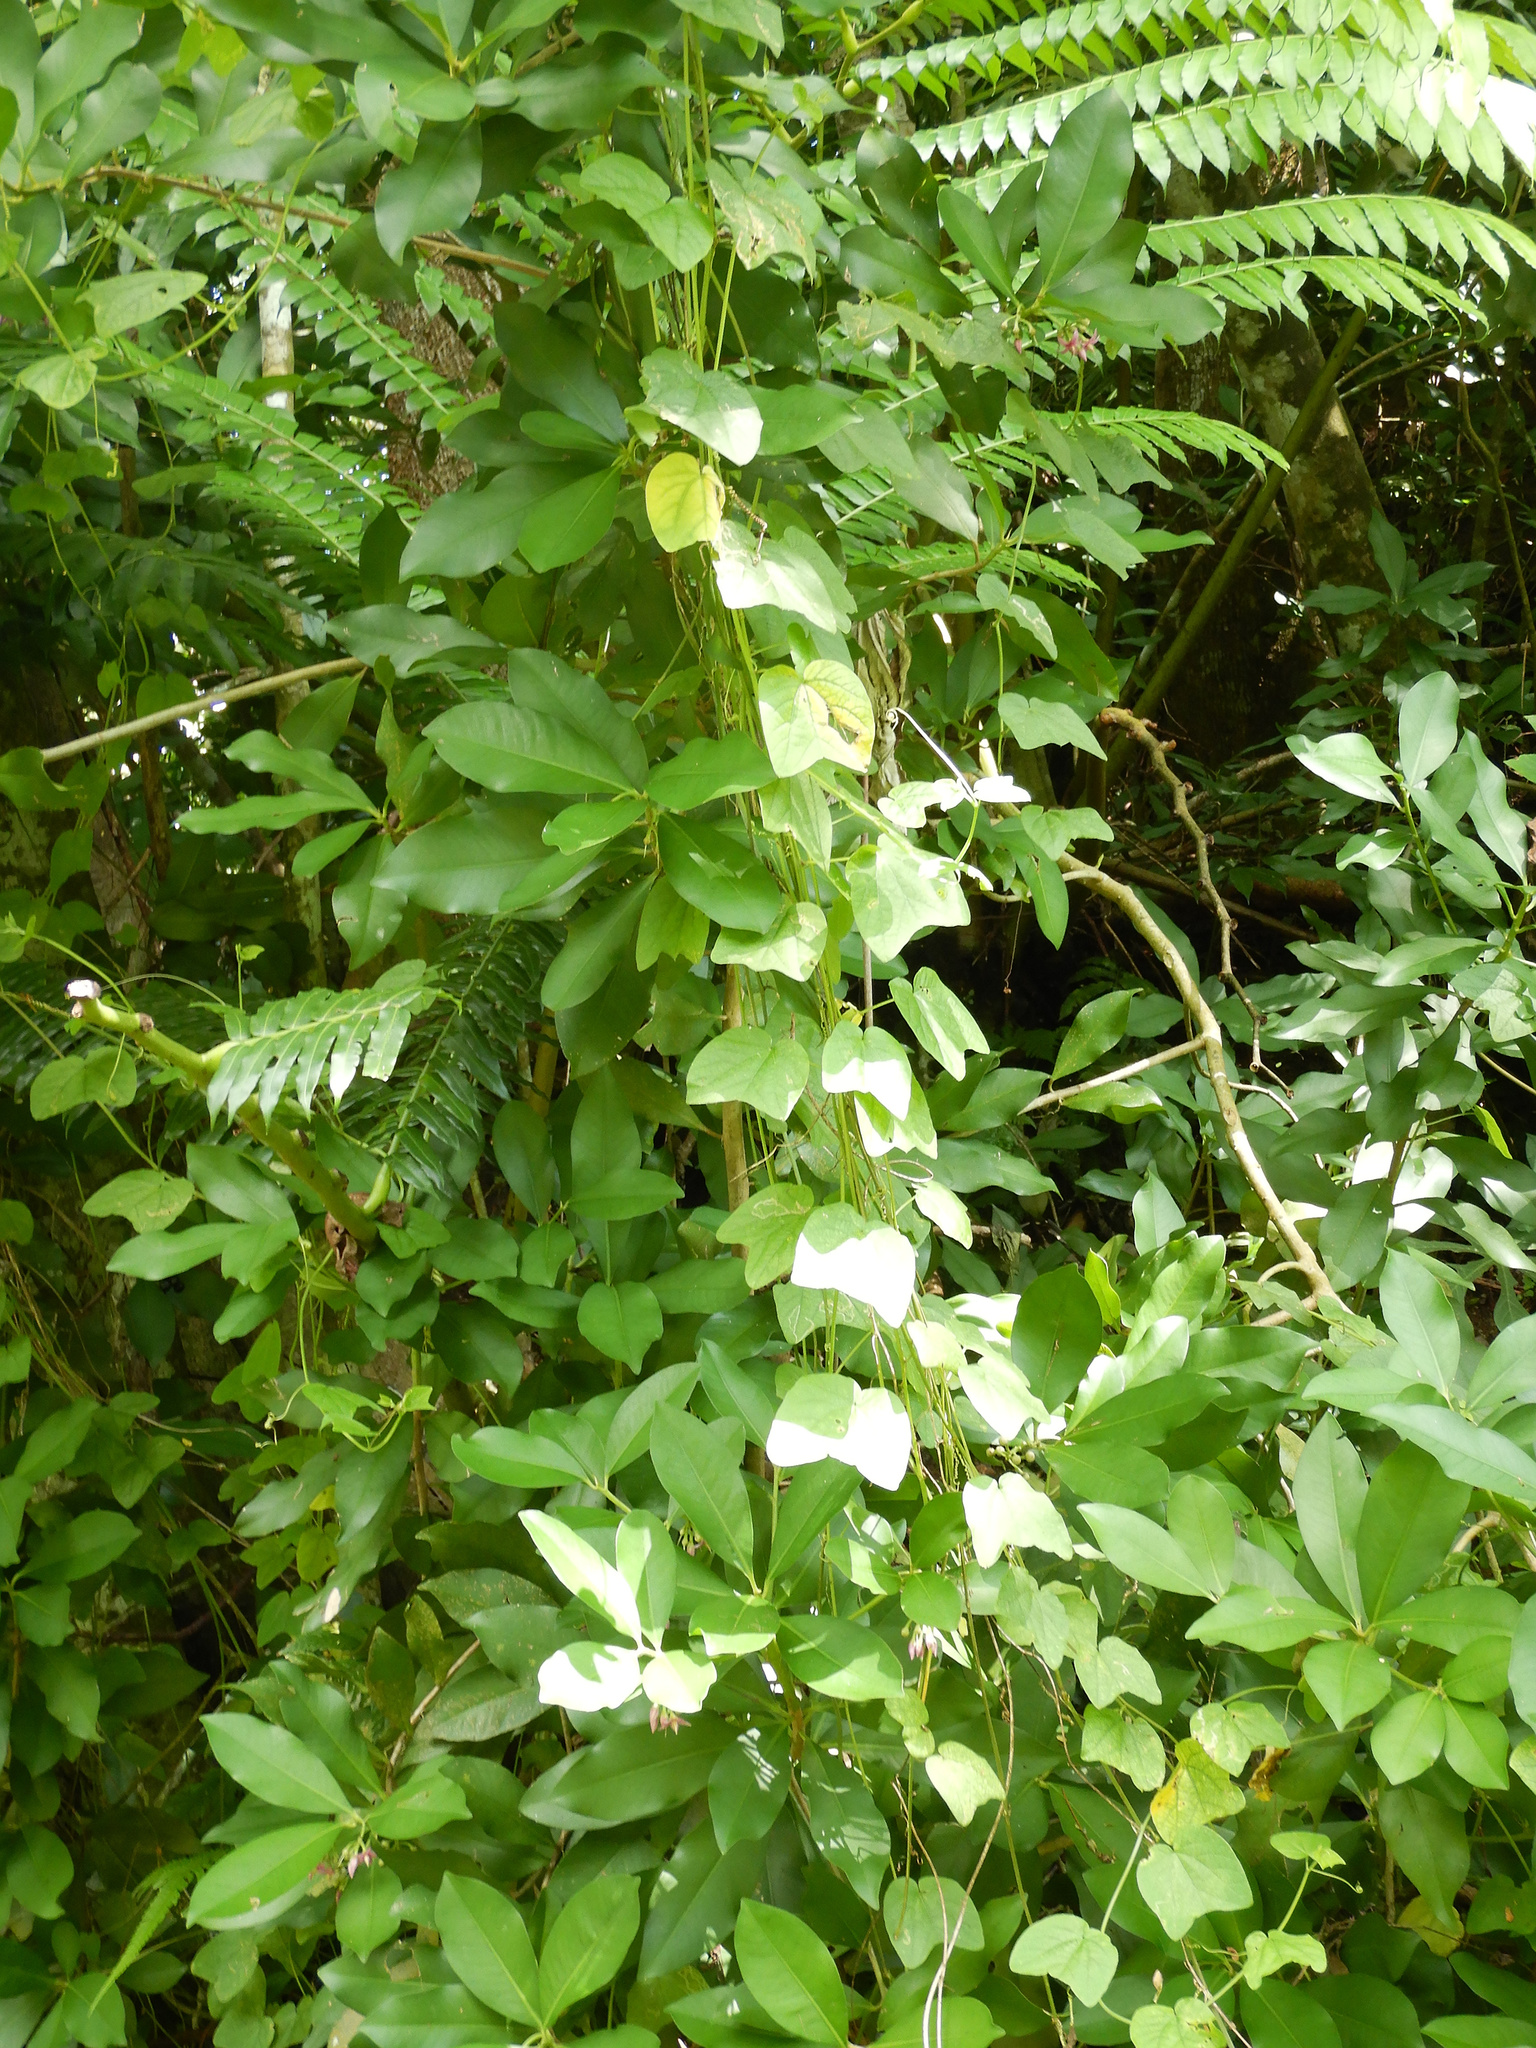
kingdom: Plantae
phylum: Tracheophyta
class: Magnoliopsida
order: Malpighiales
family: Passifloraceae
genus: Passiflora
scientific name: Passiflora rubra
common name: Snakeberry vine
